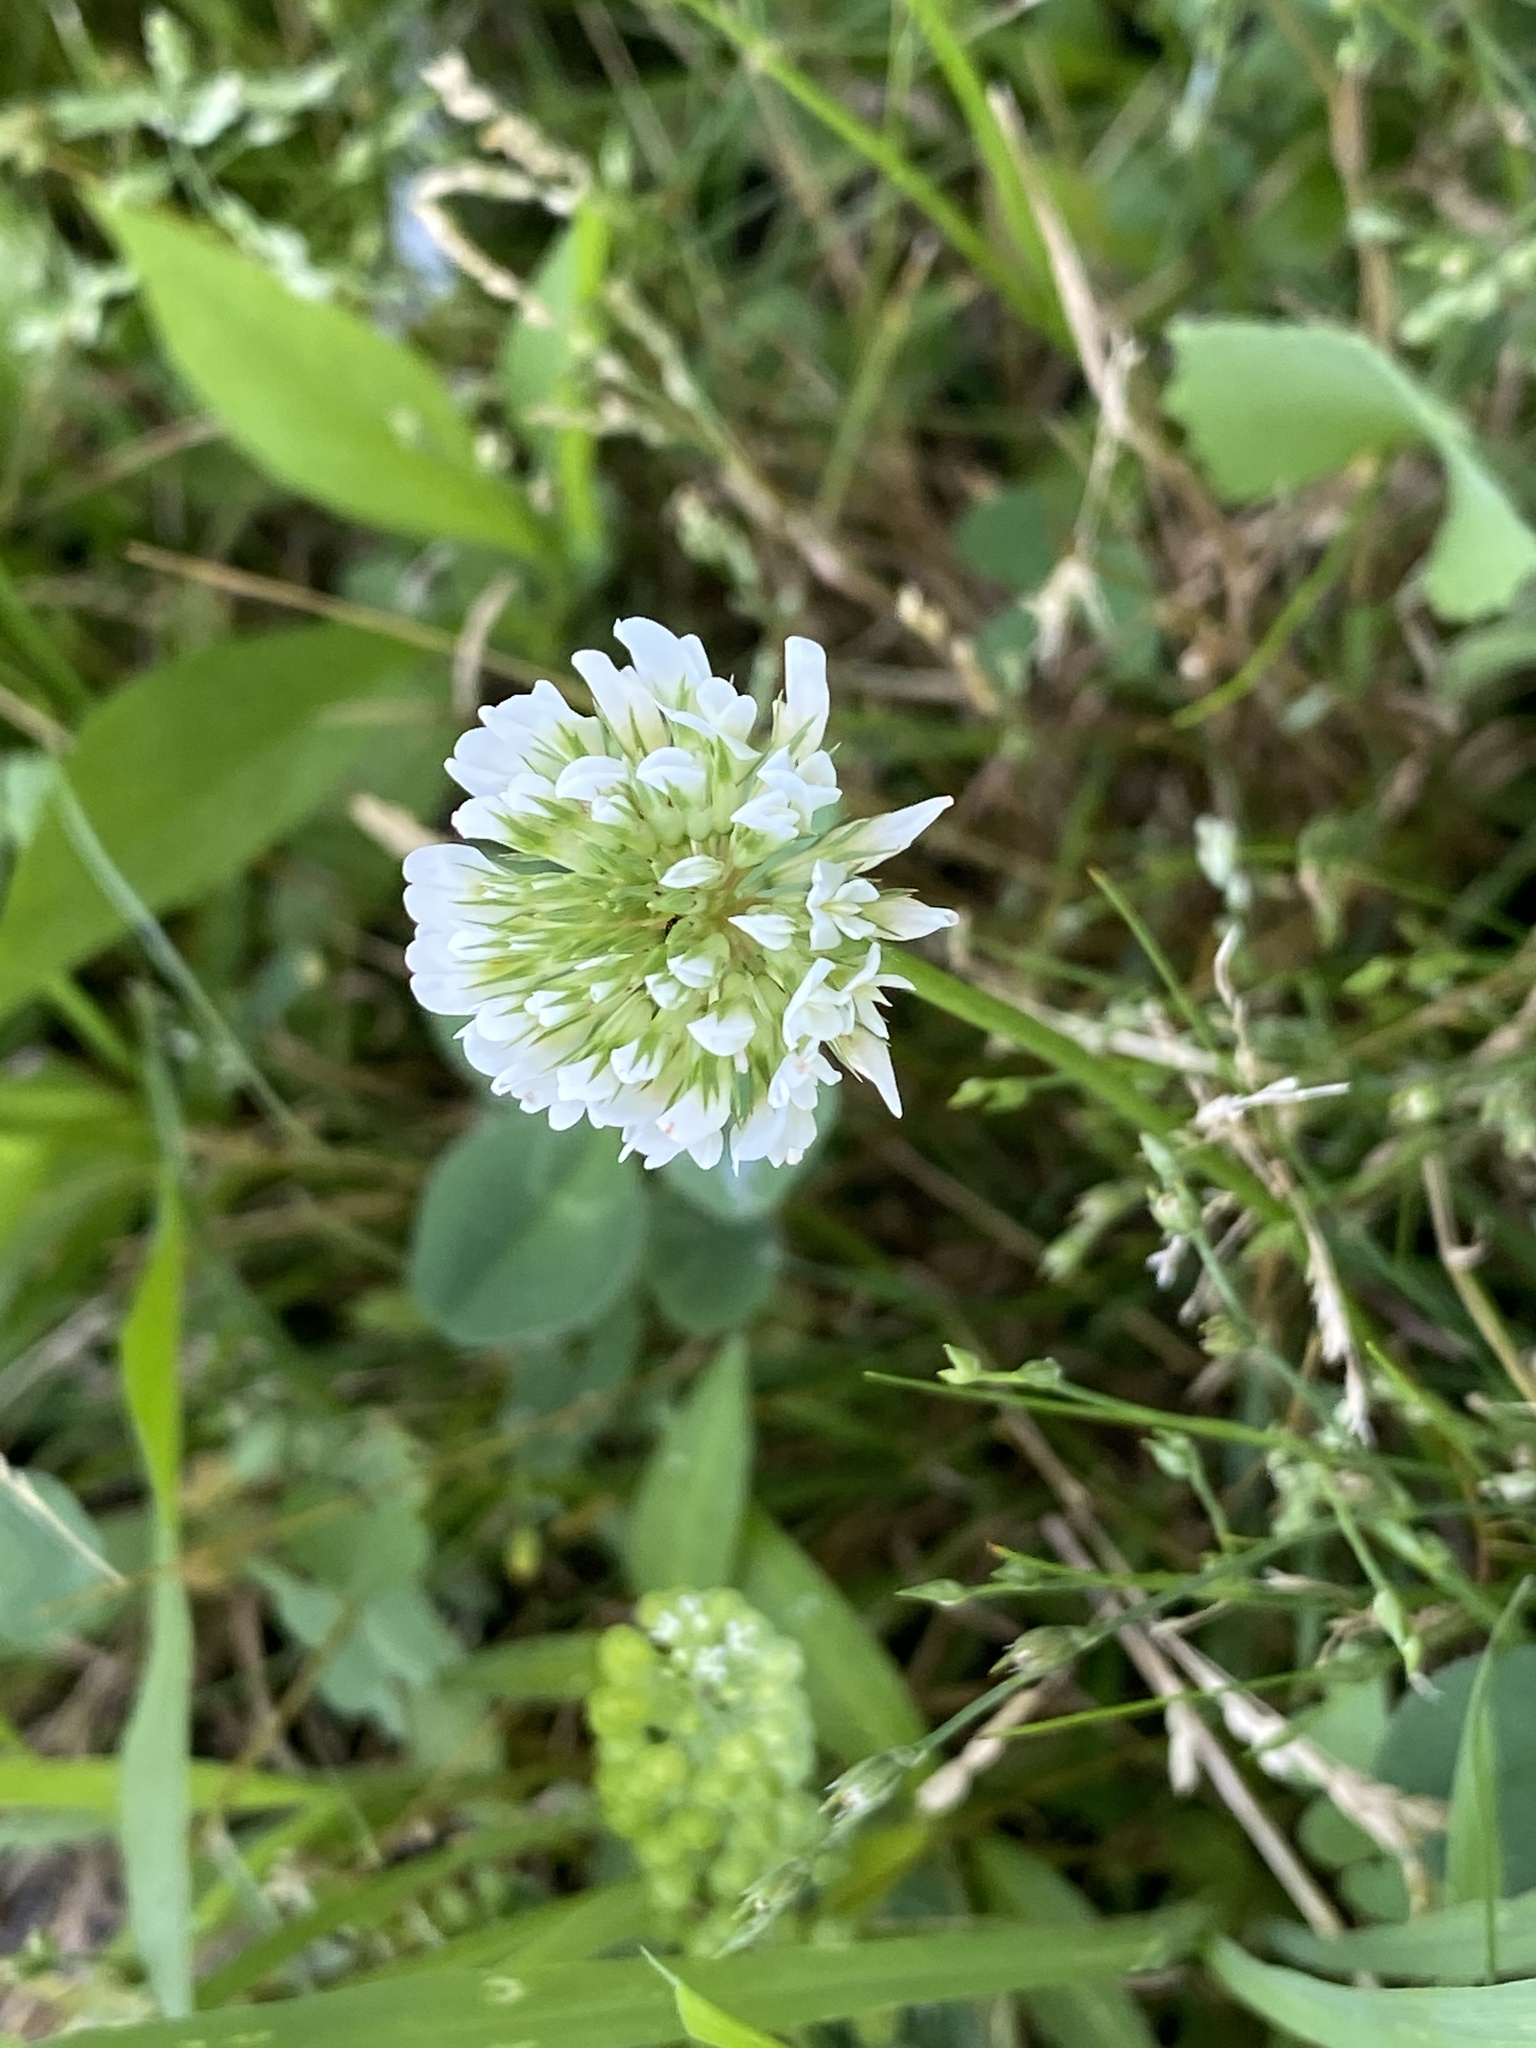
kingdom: Plantae
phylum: Tracheophyta
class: Magnoliopsida
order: Fabales
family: Fabaceae
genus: Trifolium
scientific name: Trifolium repens
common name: White clover
